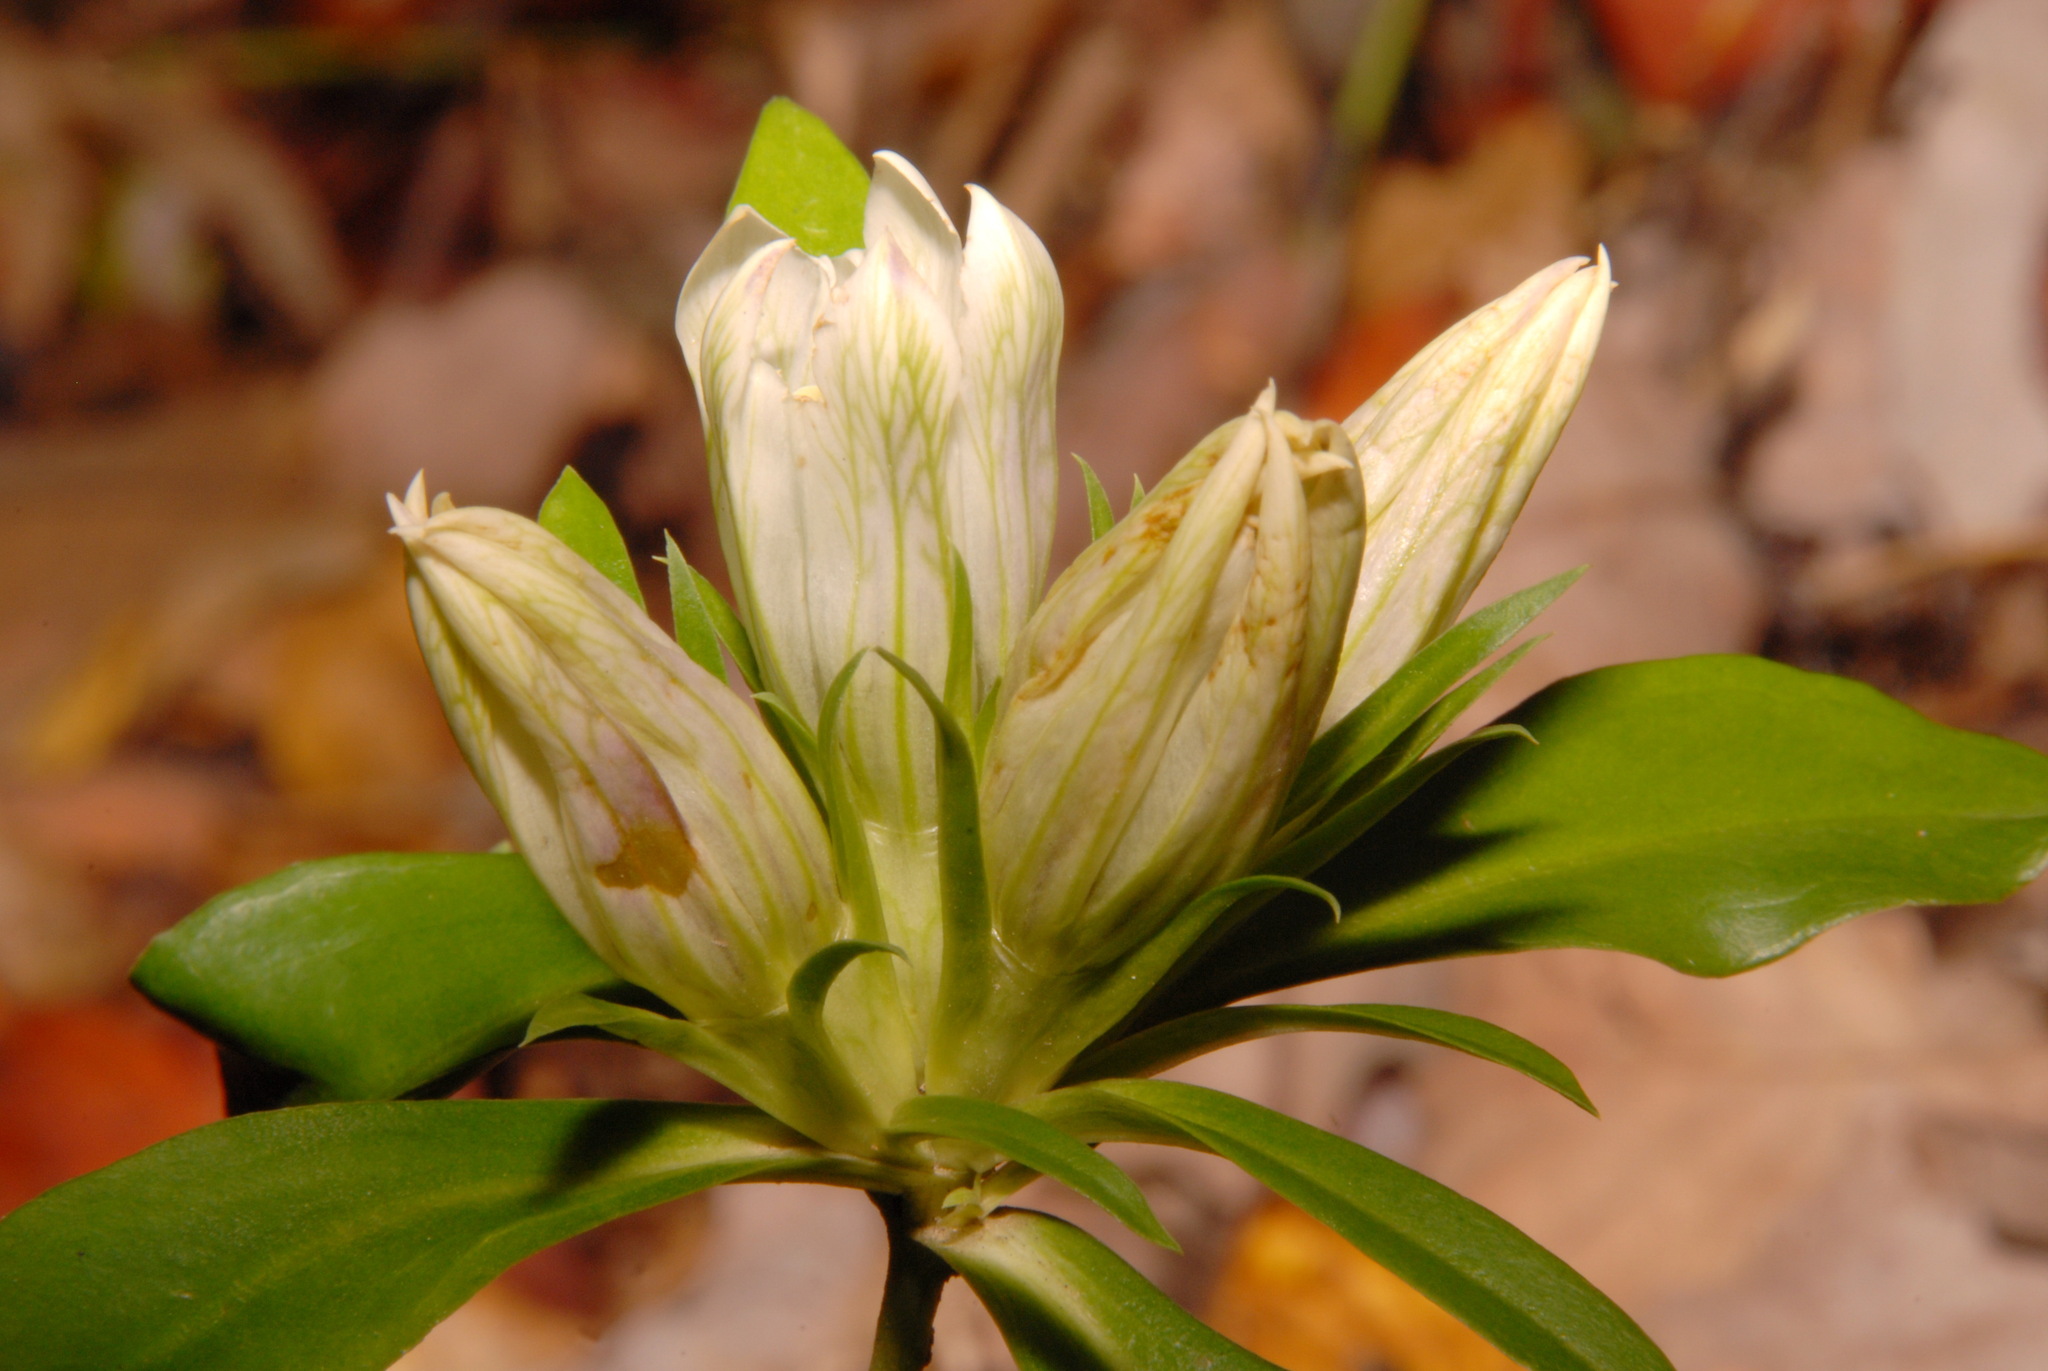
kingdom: Plantae
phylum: Tracheophyta
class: Magnoliopsida
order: Gentianales
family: Gentianaceae
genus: Gentiana
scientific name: Gentiana villosa
